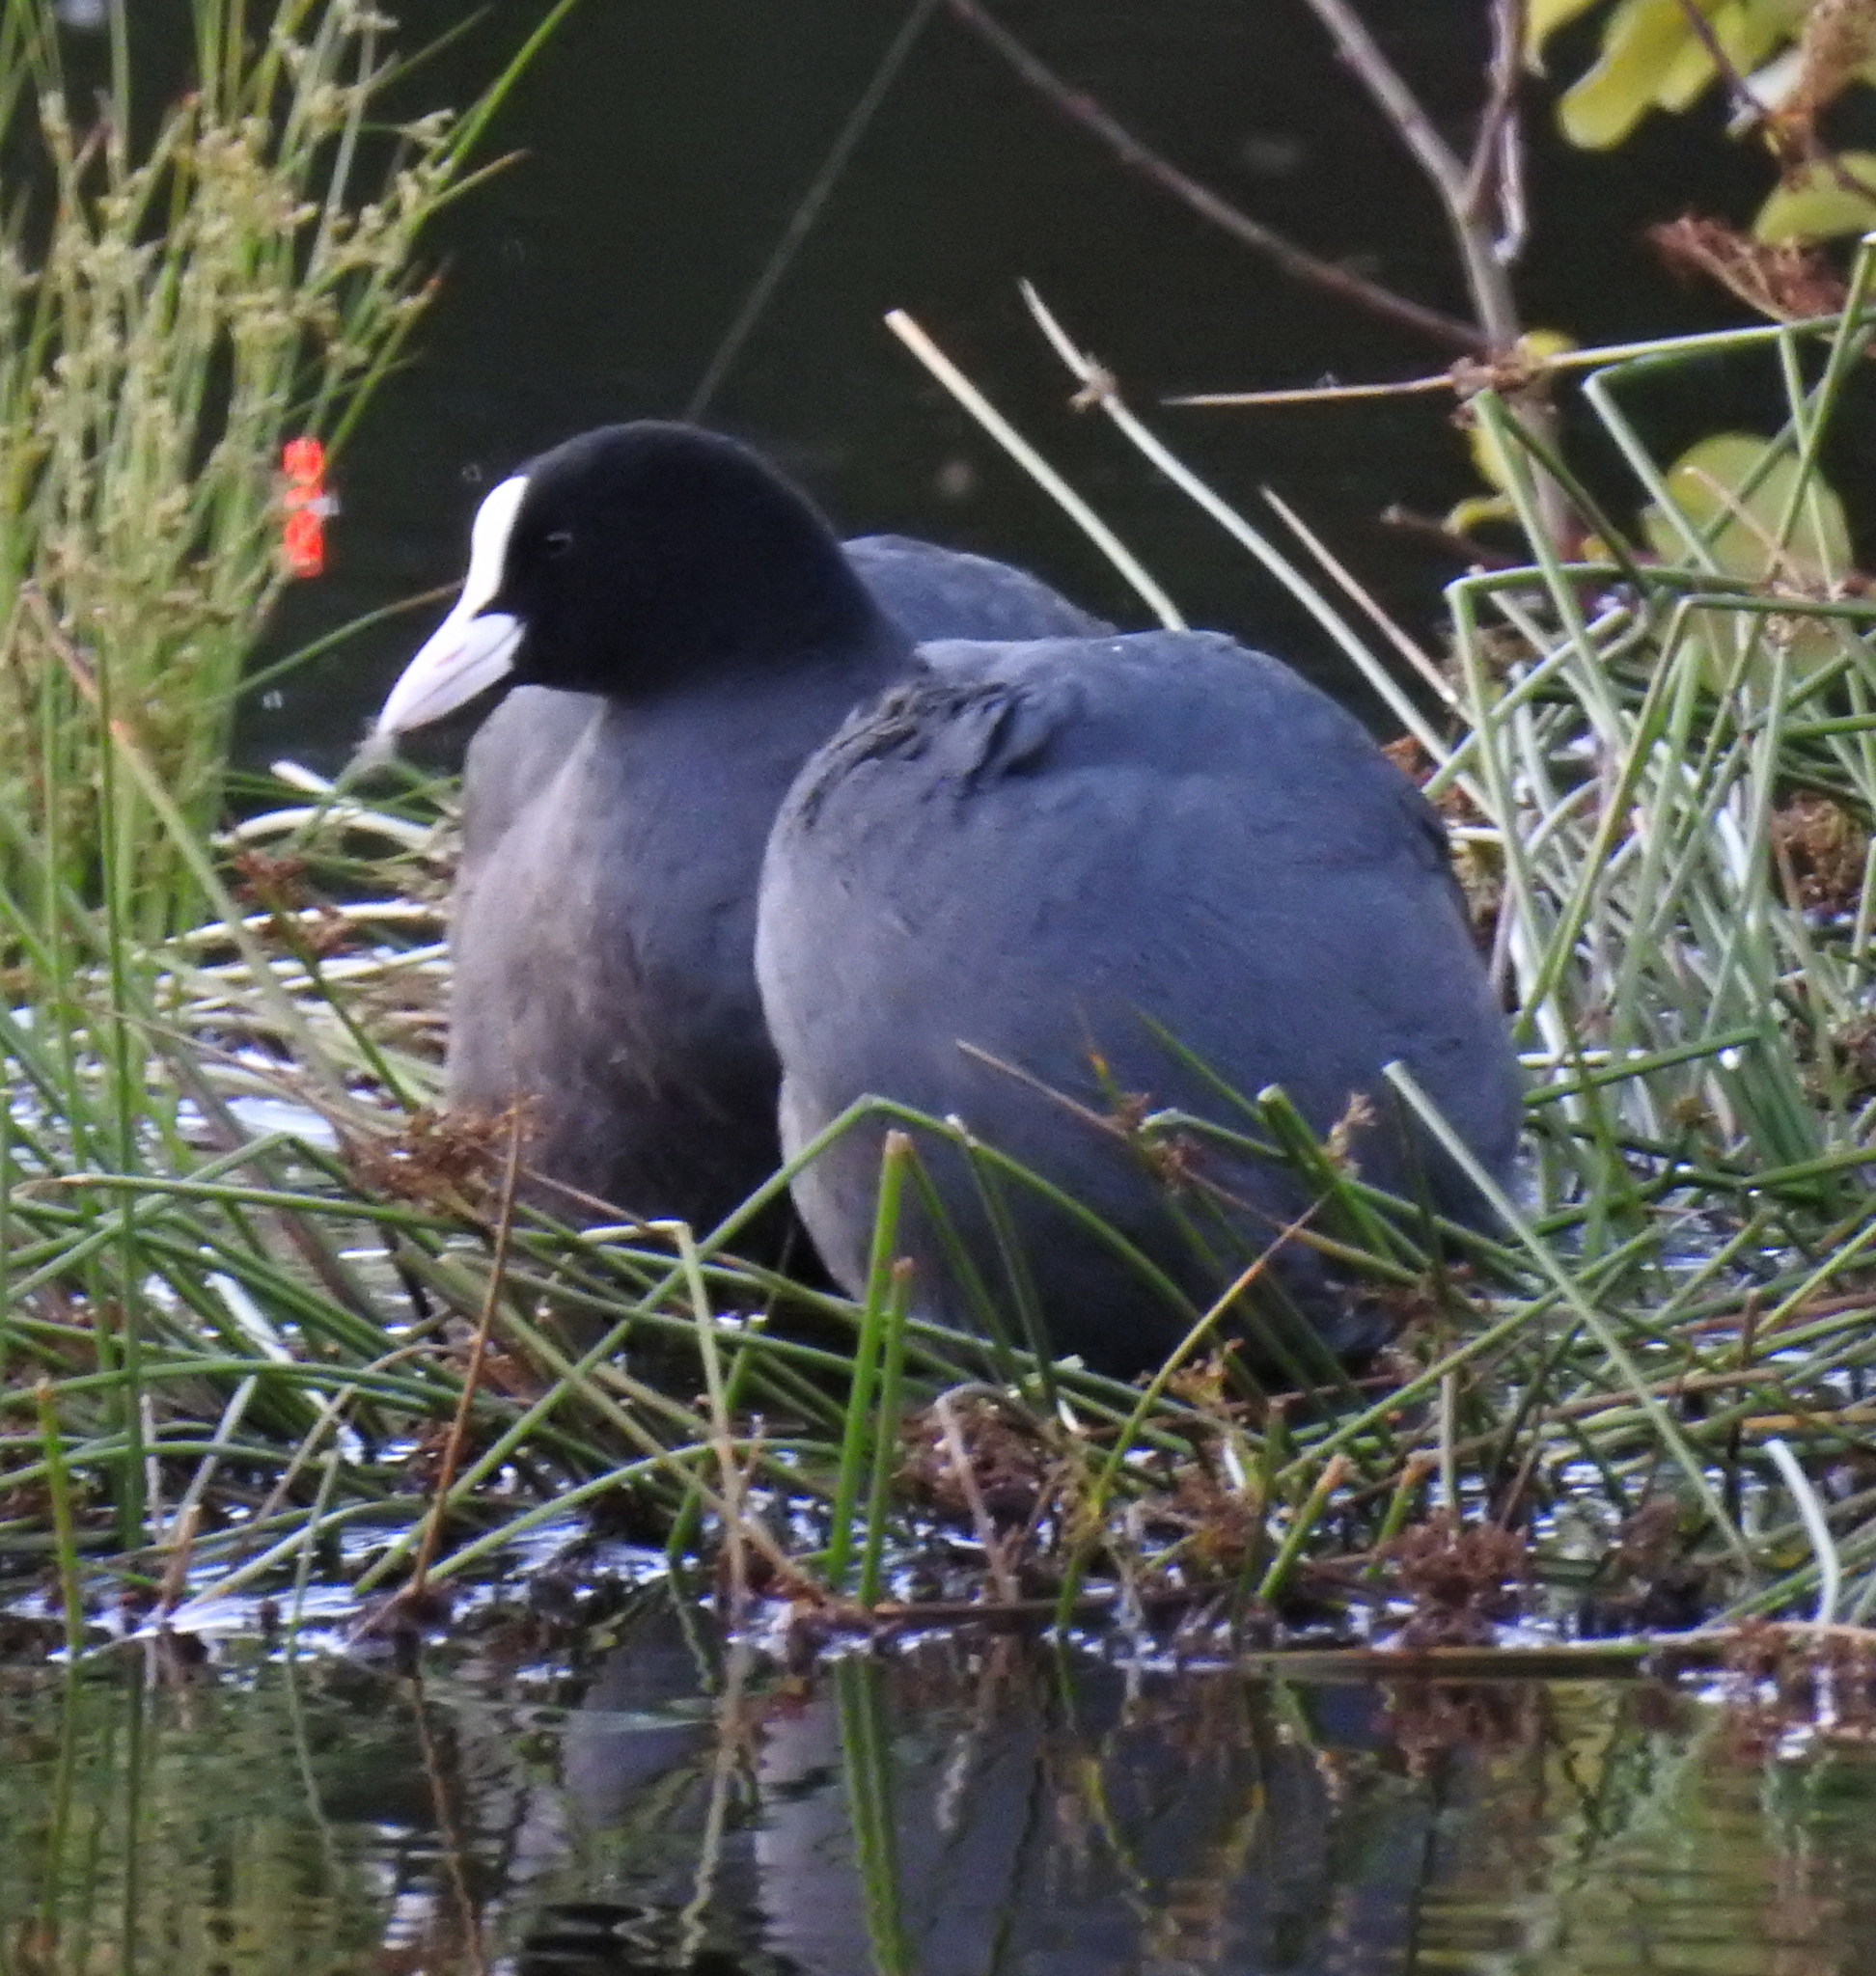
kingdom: Animalia
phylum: Chordata
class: Aves
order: Gruiformes
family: Rallidae
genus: Fulica
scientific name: Fulica atra
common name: Eurasian coot
